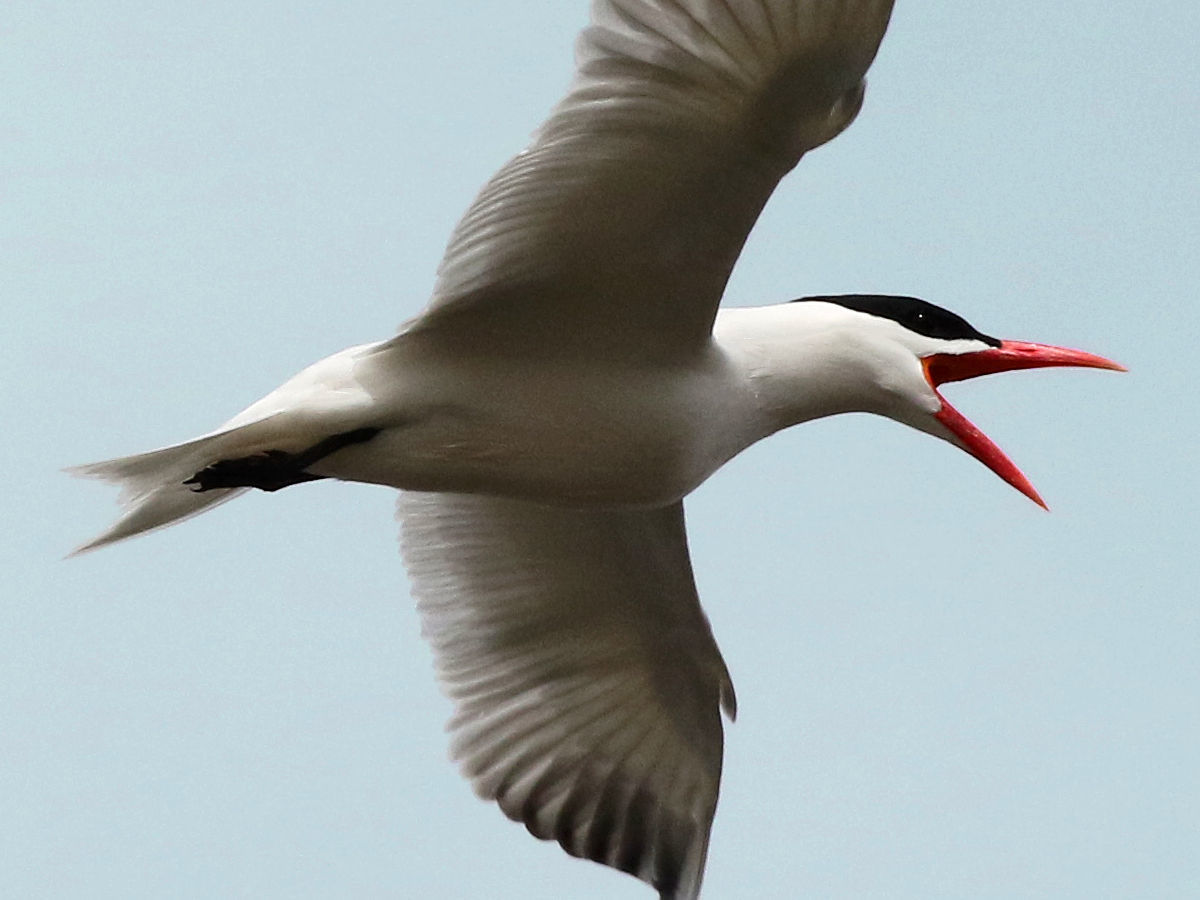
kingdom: Animalia
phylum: Chordata
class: Aves
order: Charadriiformes
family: Laridae
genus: Hydroprogne
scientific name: Hydroprogne caspia
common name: Caspian tern
